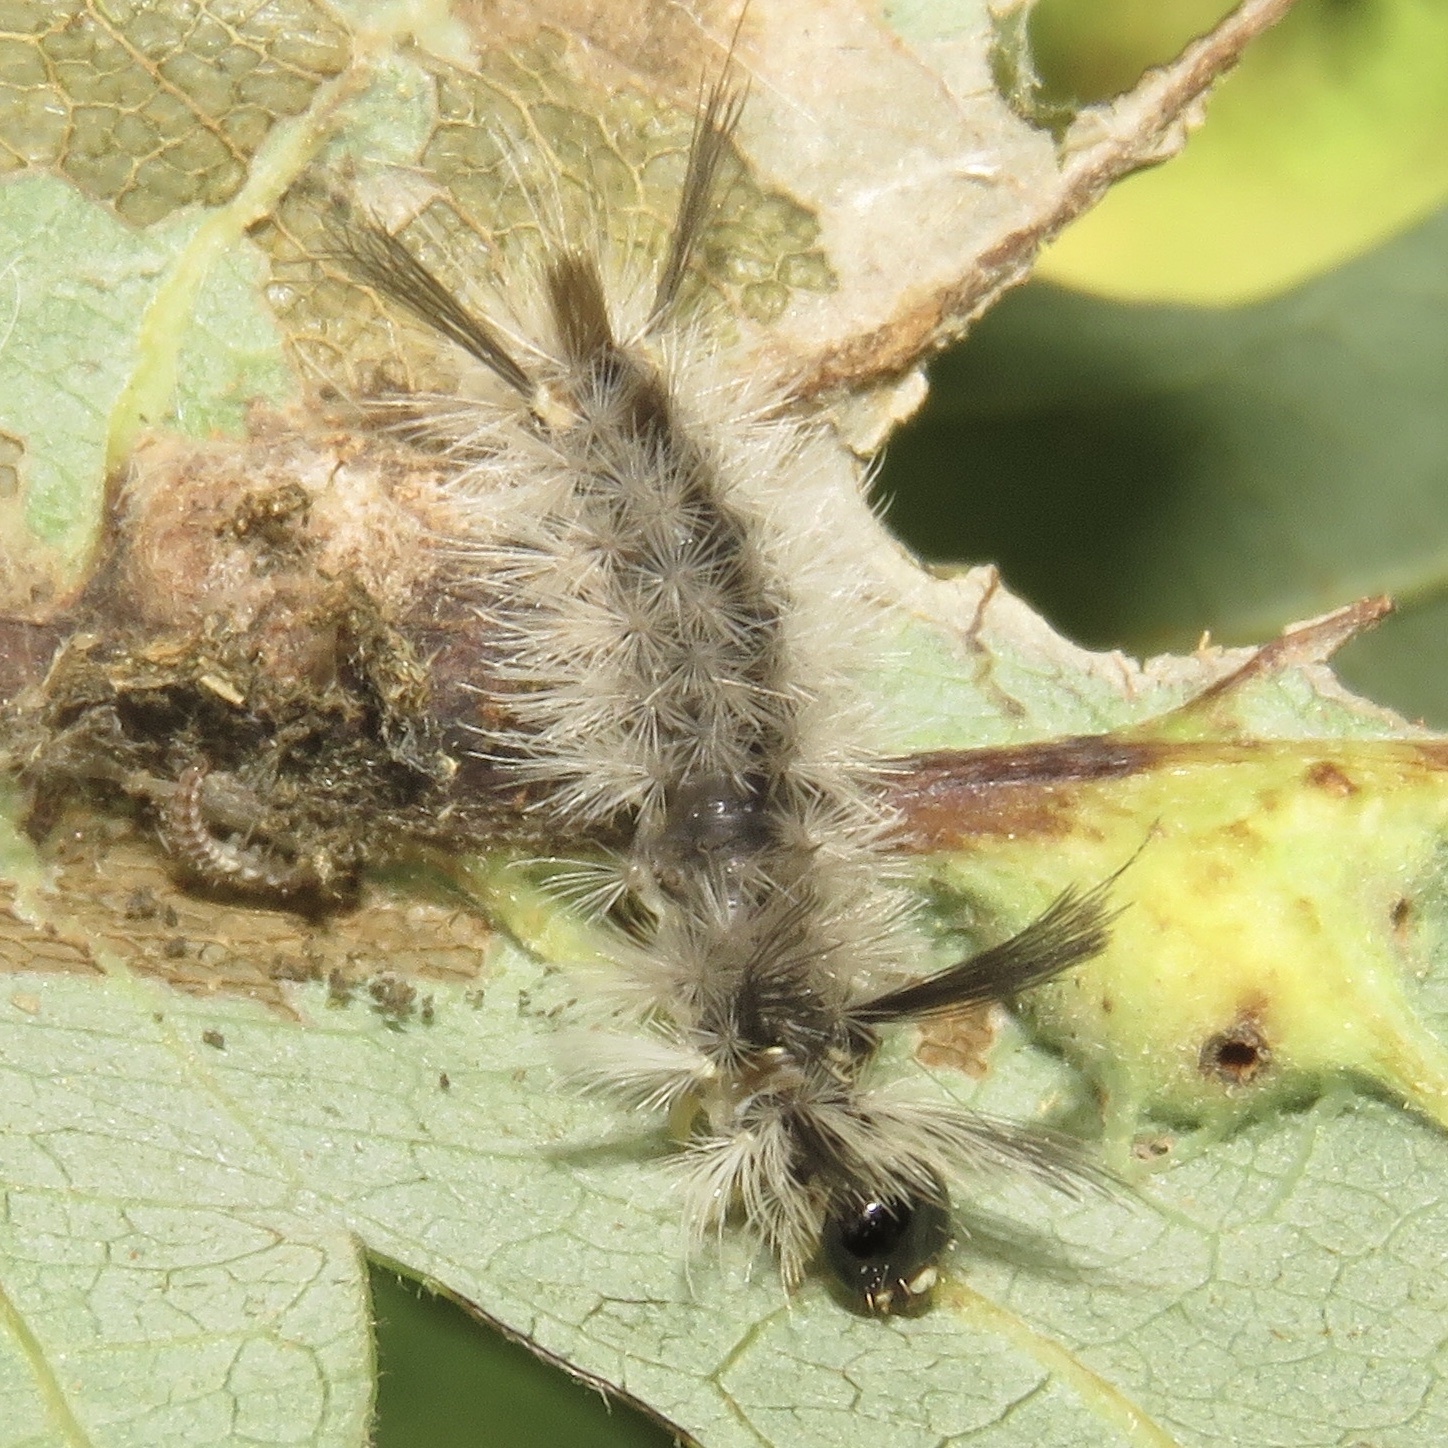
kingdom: Animalia
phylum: Arthropoda
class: Insecta
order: Lepidoptera
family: Erebidae
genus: Halysidota
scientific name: Halysidota tessellaris
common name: Banded tussock moth
